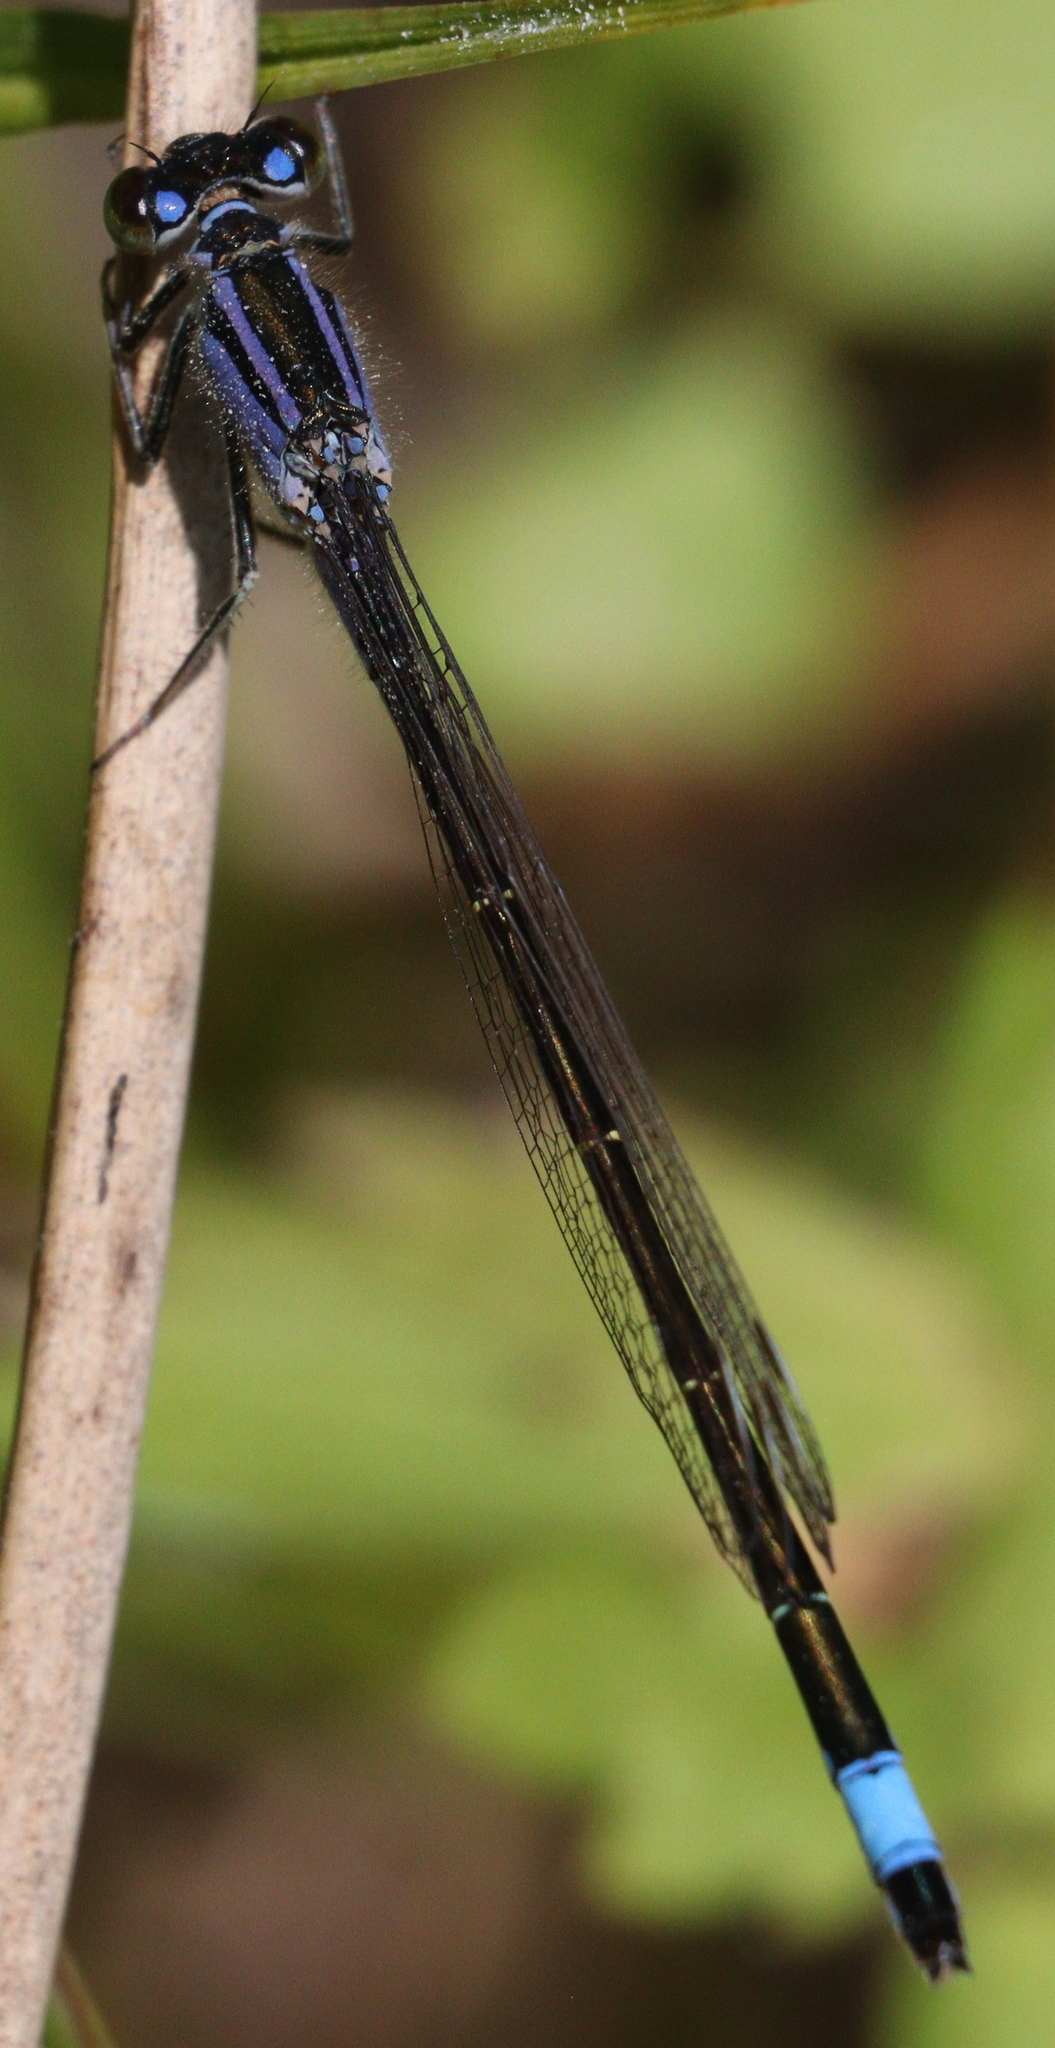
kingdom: Animalia
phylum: Arthropoda
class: Insecta
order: Odonata
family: Coenagrionidae
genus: Ischnura
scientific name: Ischnura elegans
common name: Blue-tailed damselfly
